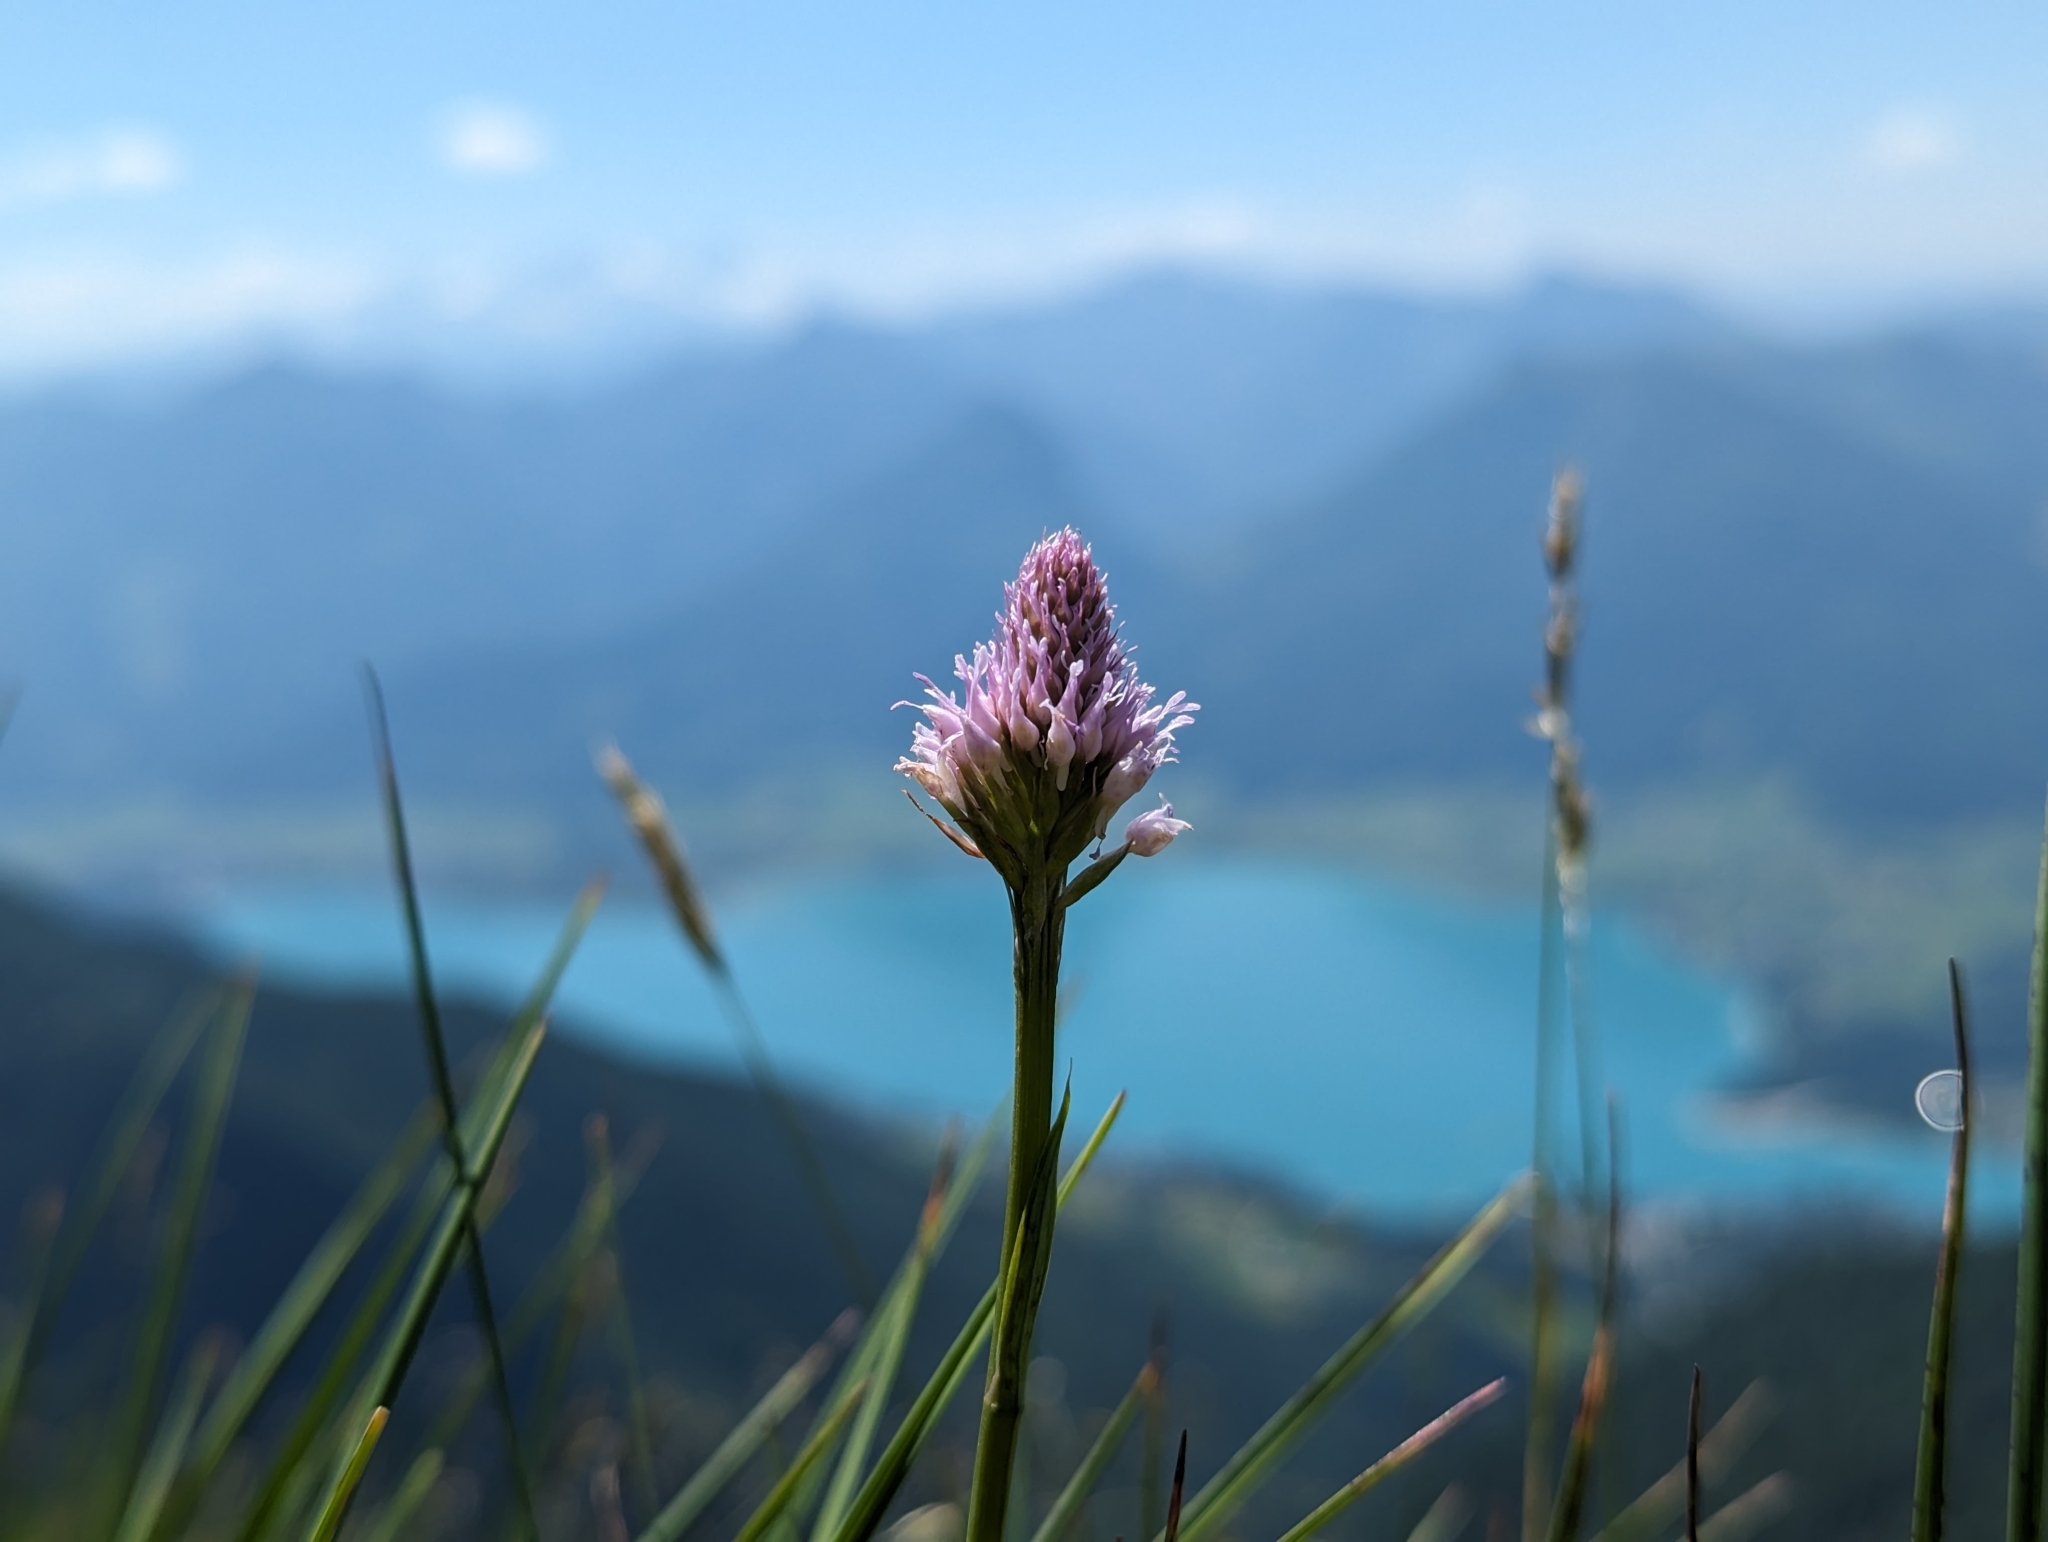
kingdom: Plantae
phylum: Tracheophyta
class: Liliopsida
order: Asparagales
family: Orchidaceae
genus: Traunsteinera
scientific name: Traunsteinera globosa
